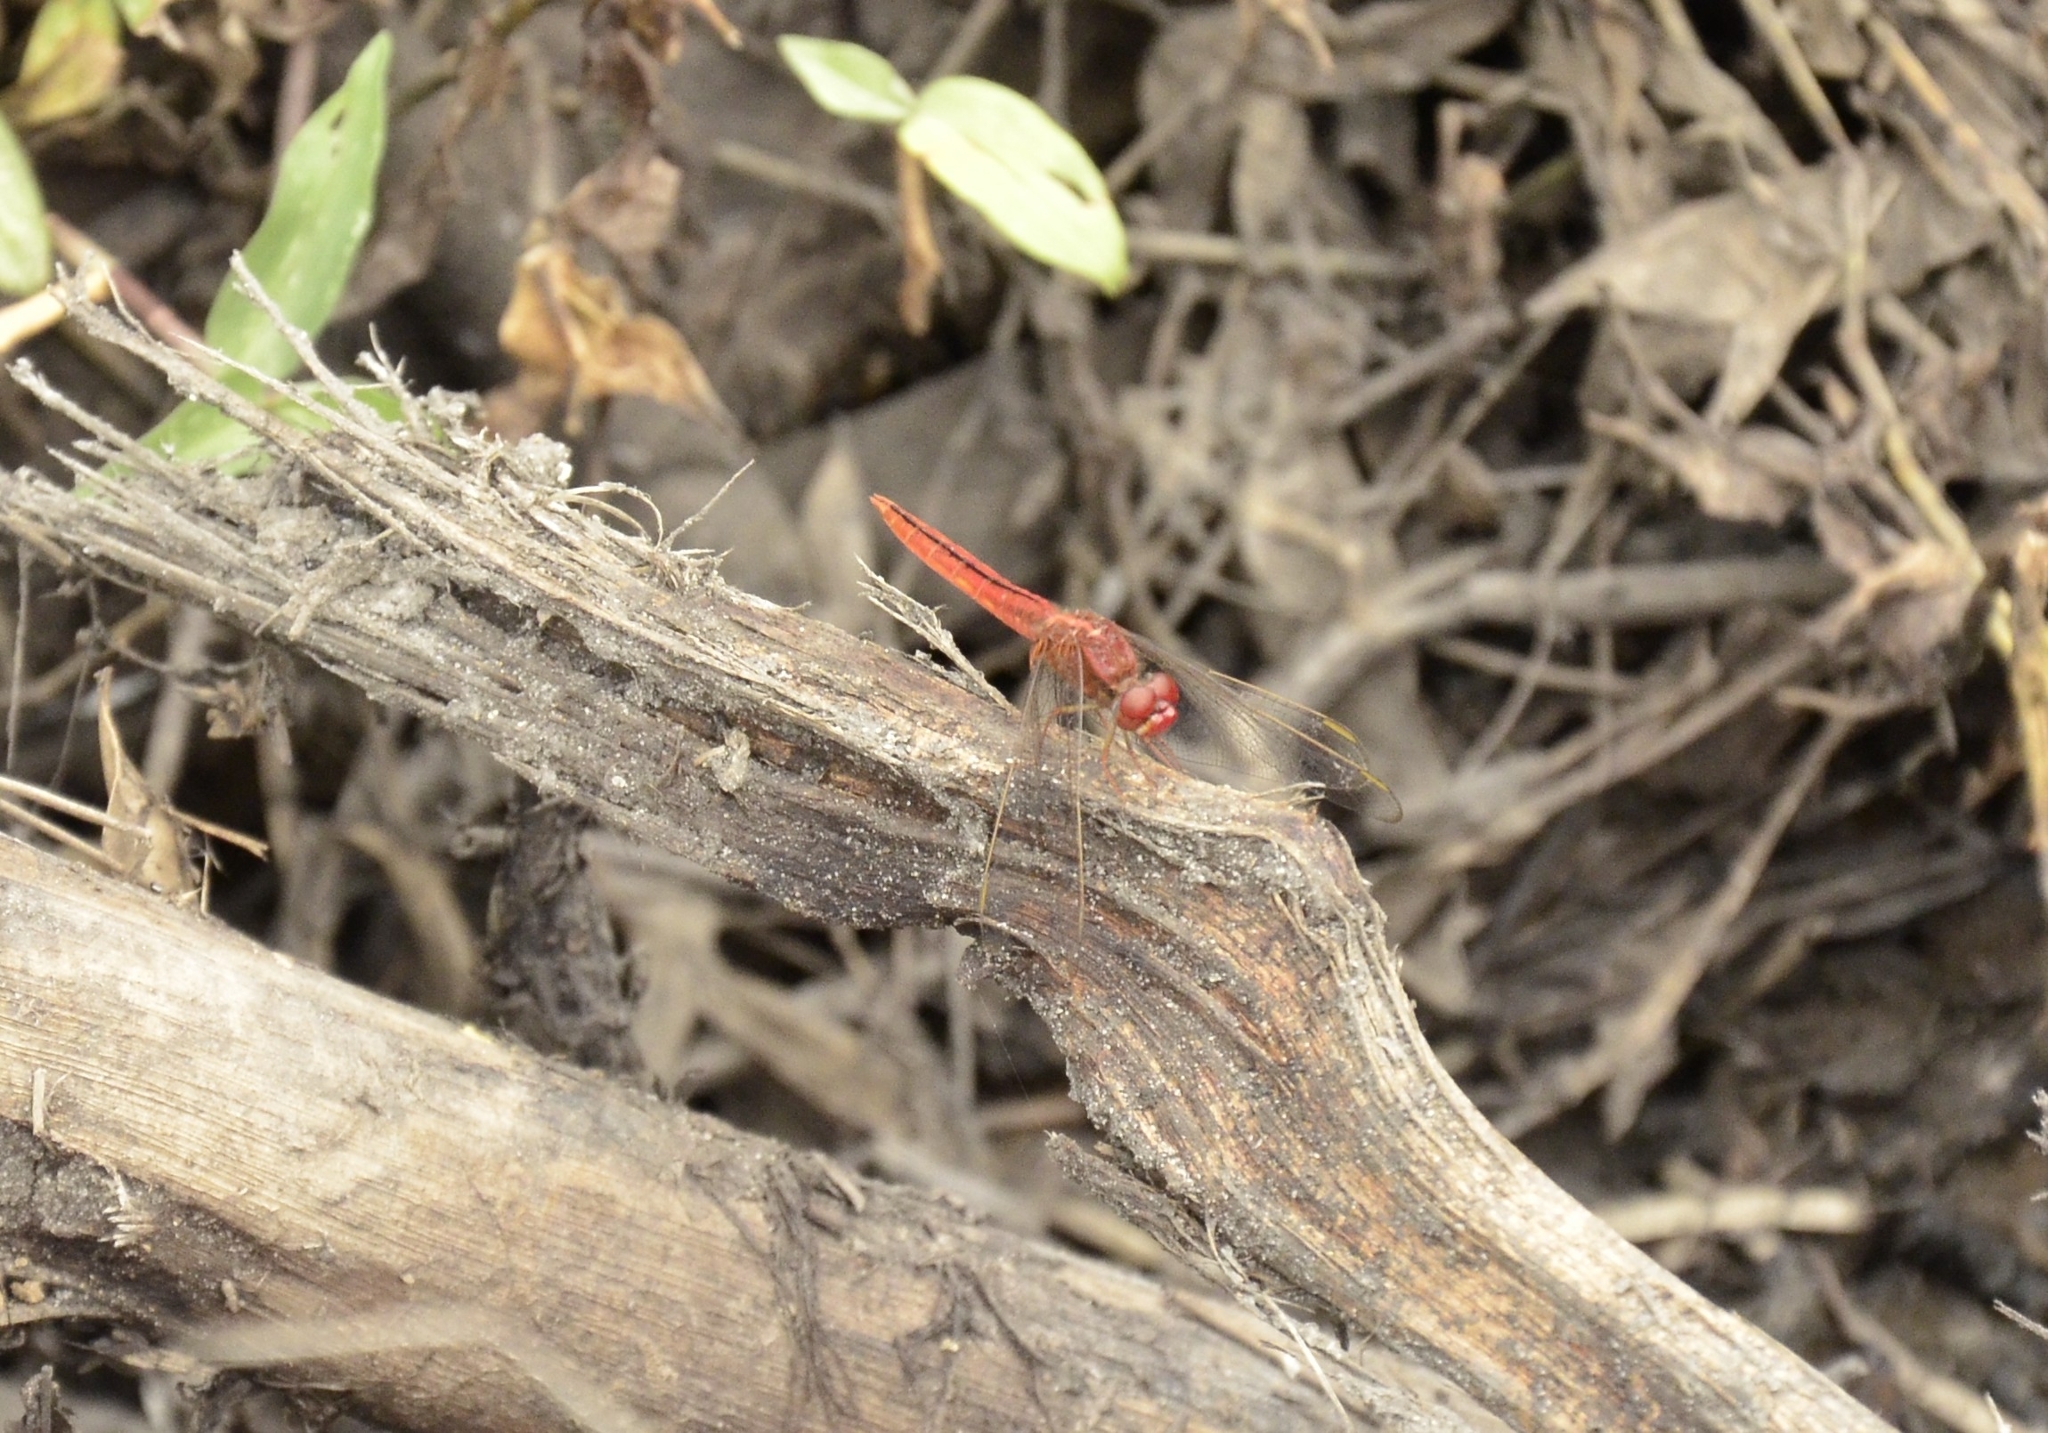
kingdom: Animalia
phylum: Arthropoda
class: Insecta
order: Odonata
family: Libellulidae
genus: Crocothemis
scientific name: Crocothemis servilia
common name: Scarlet skimmer
